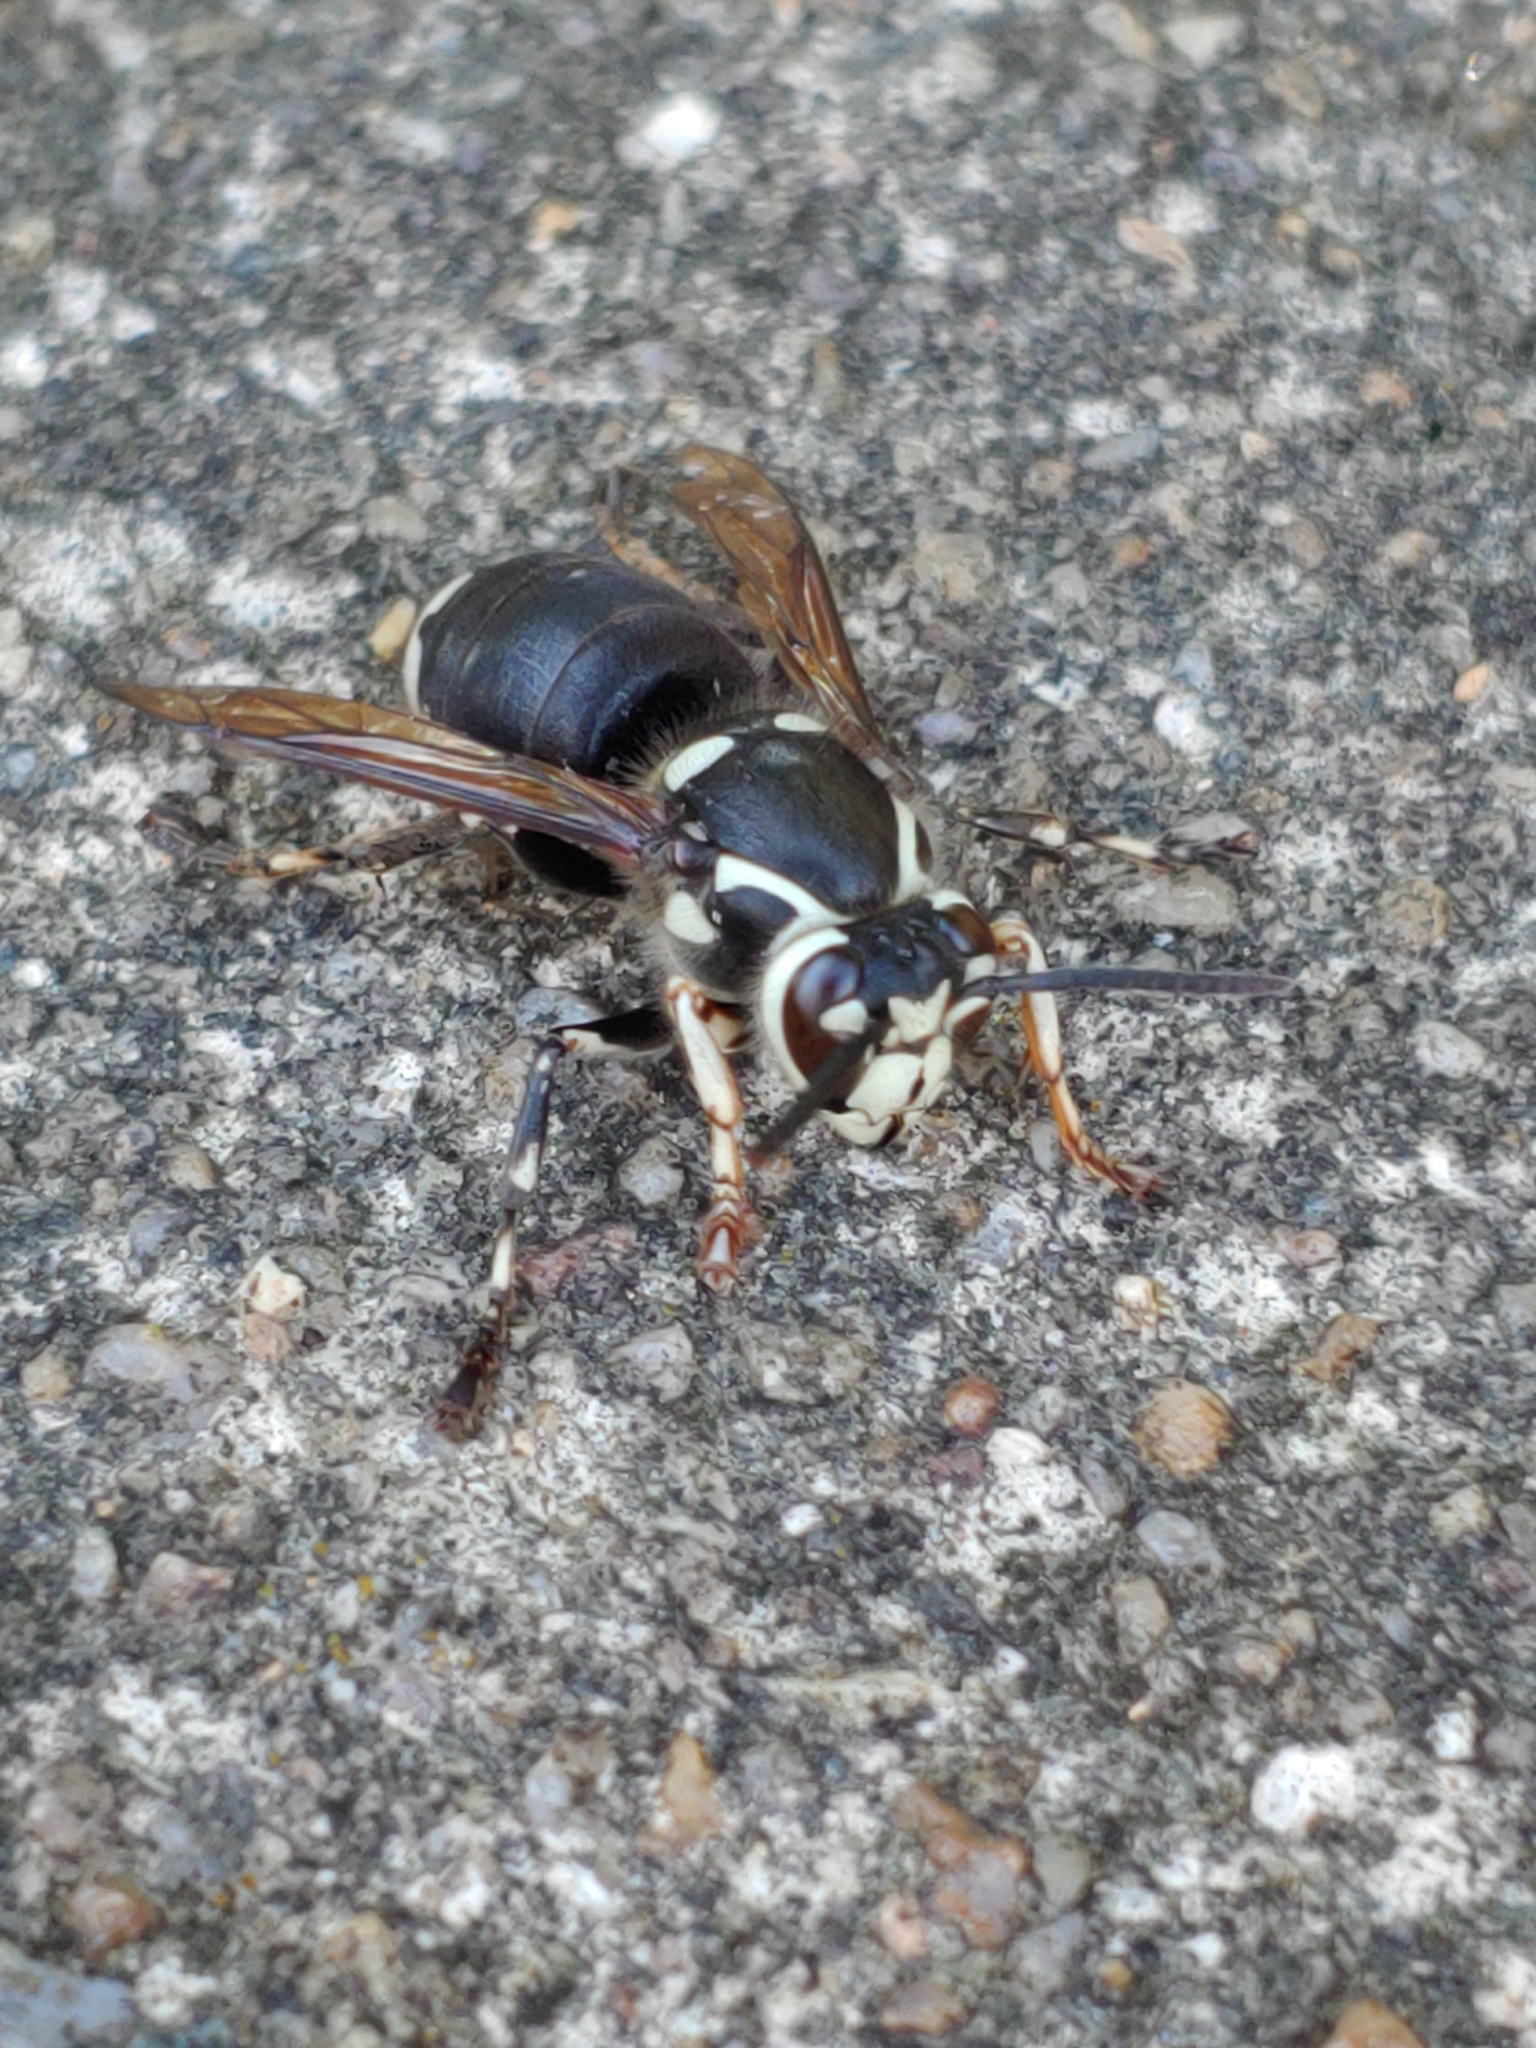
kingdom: Animalia
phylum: Arthropoda
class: Insecta
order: Hymenoptera
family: Vespidae
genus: Dolichovespula
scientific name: Dolichovespula maculata
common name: Bald-faced hornet
